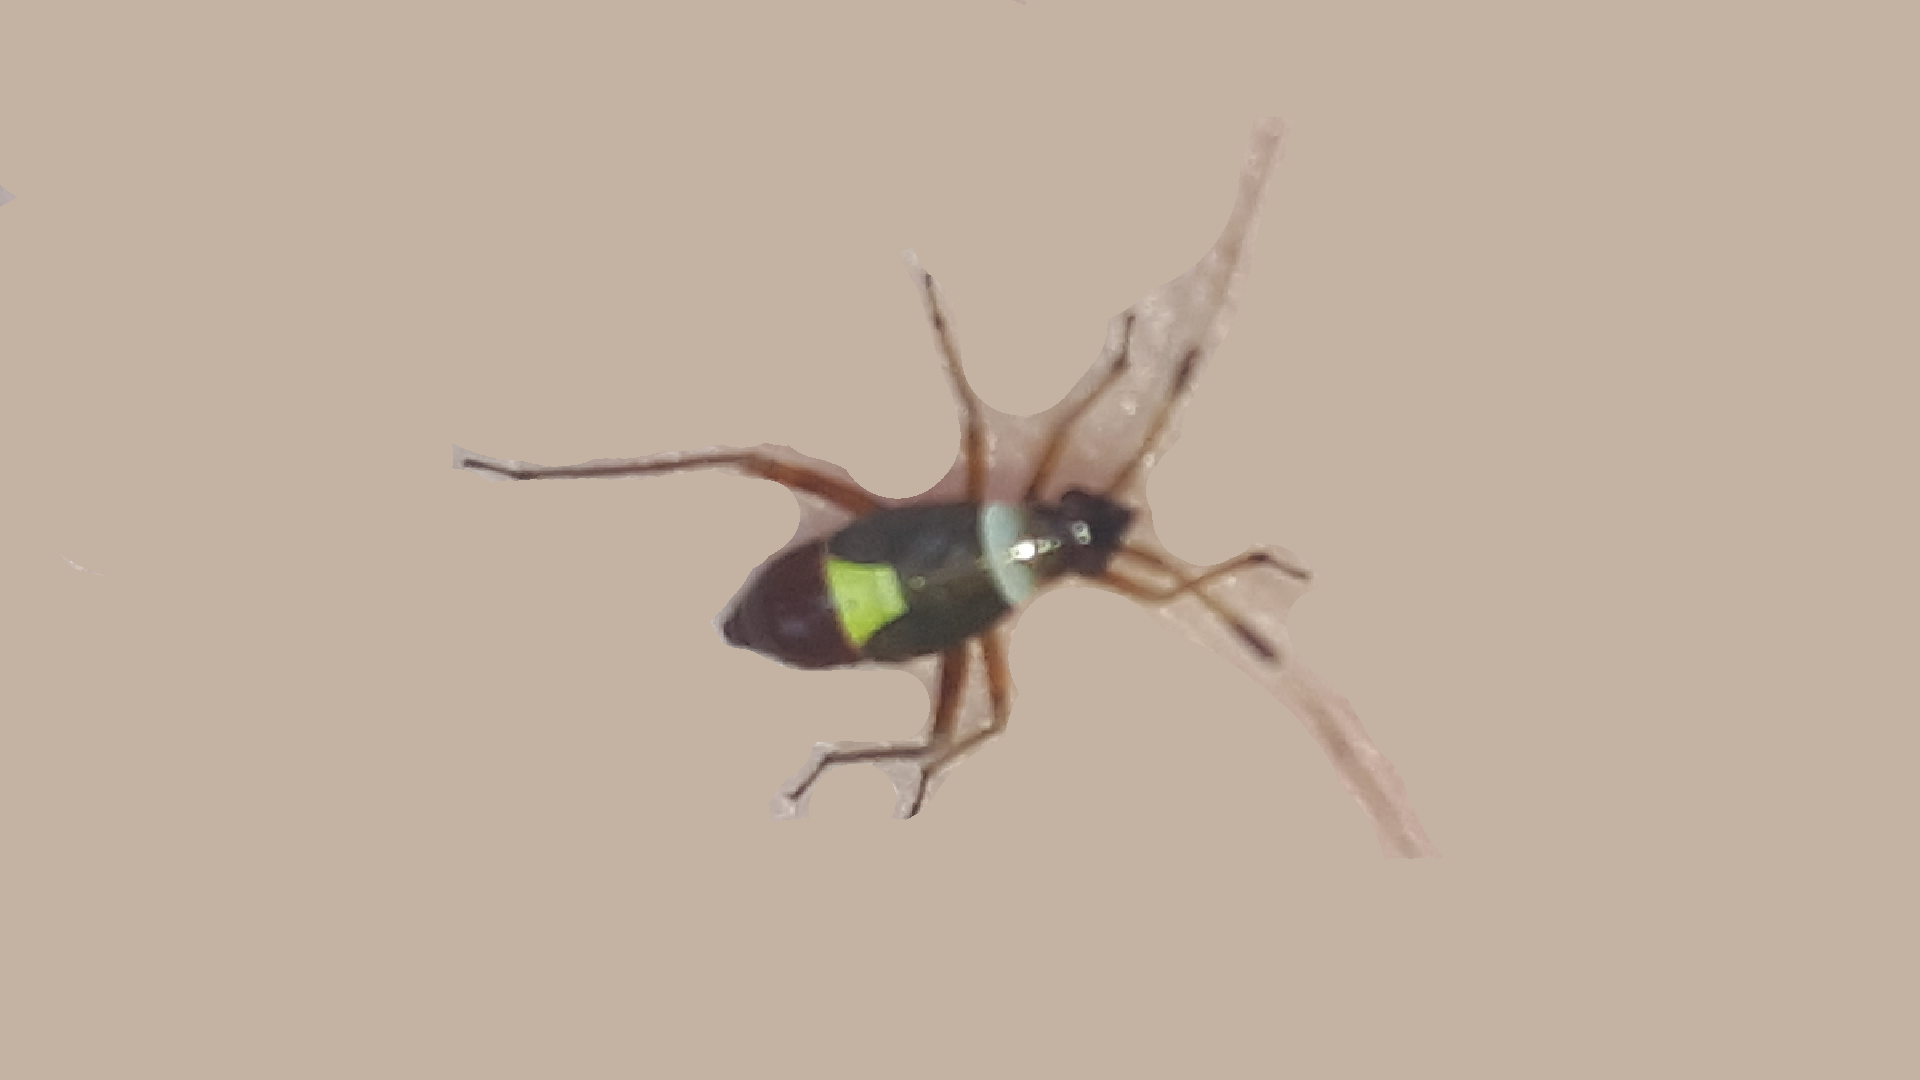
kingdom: Animalia
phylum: Arthropoda
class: Insecta
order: Hemiptera
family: Miridae
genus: Closterotomus
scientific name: Closterotomus biclavatus
